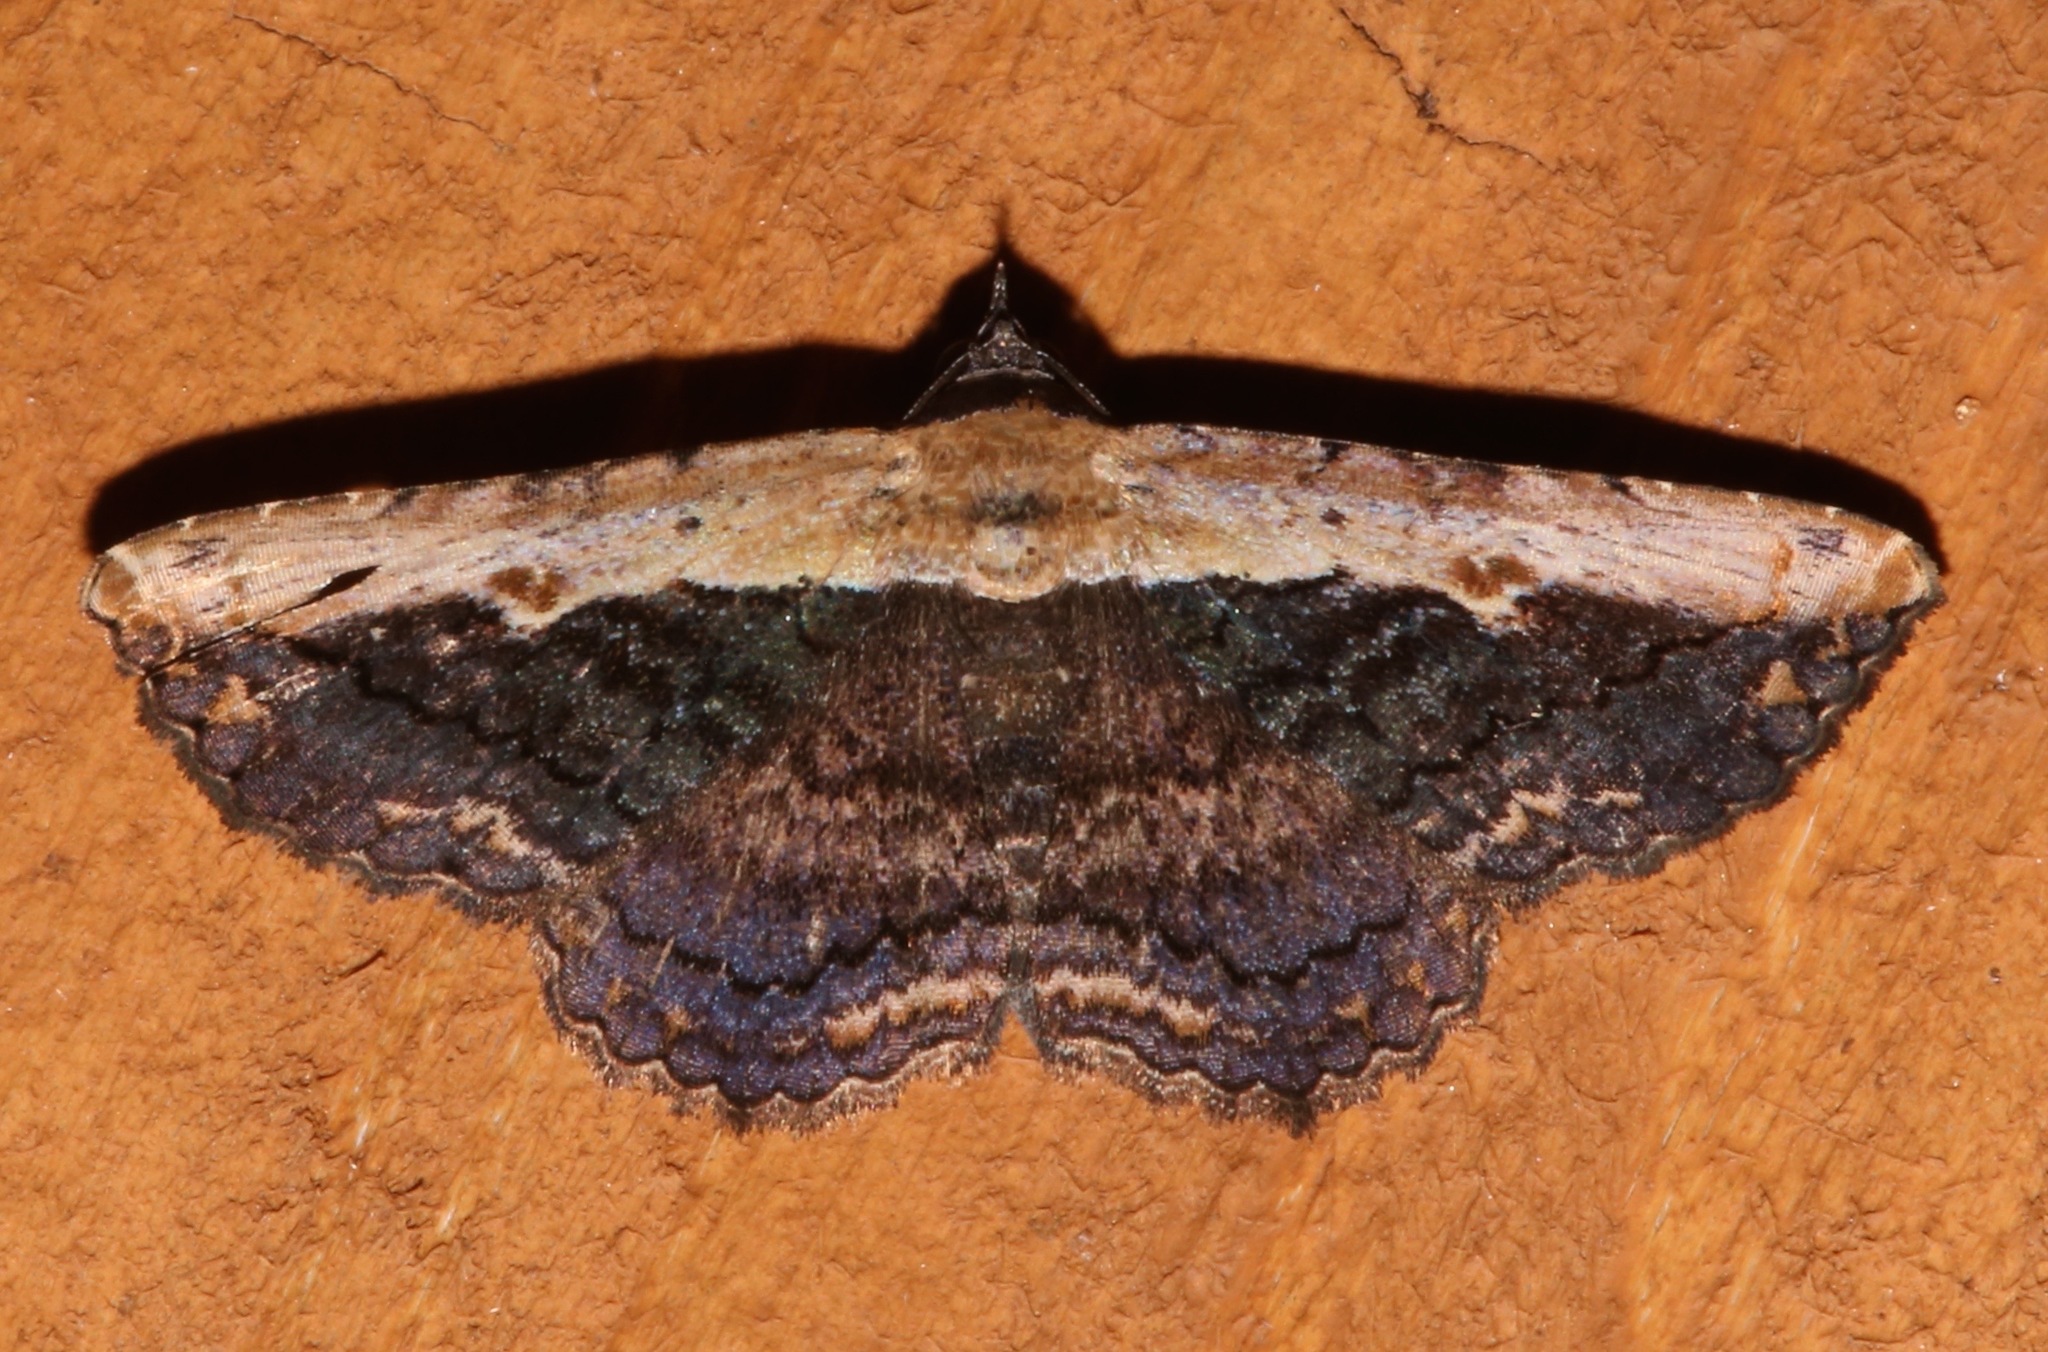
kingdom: Animalia
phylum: Arthropoda
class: Insecta
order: Lepidoptera
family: Erebidae
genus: Selenisa
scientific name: Selenisa sueroides
